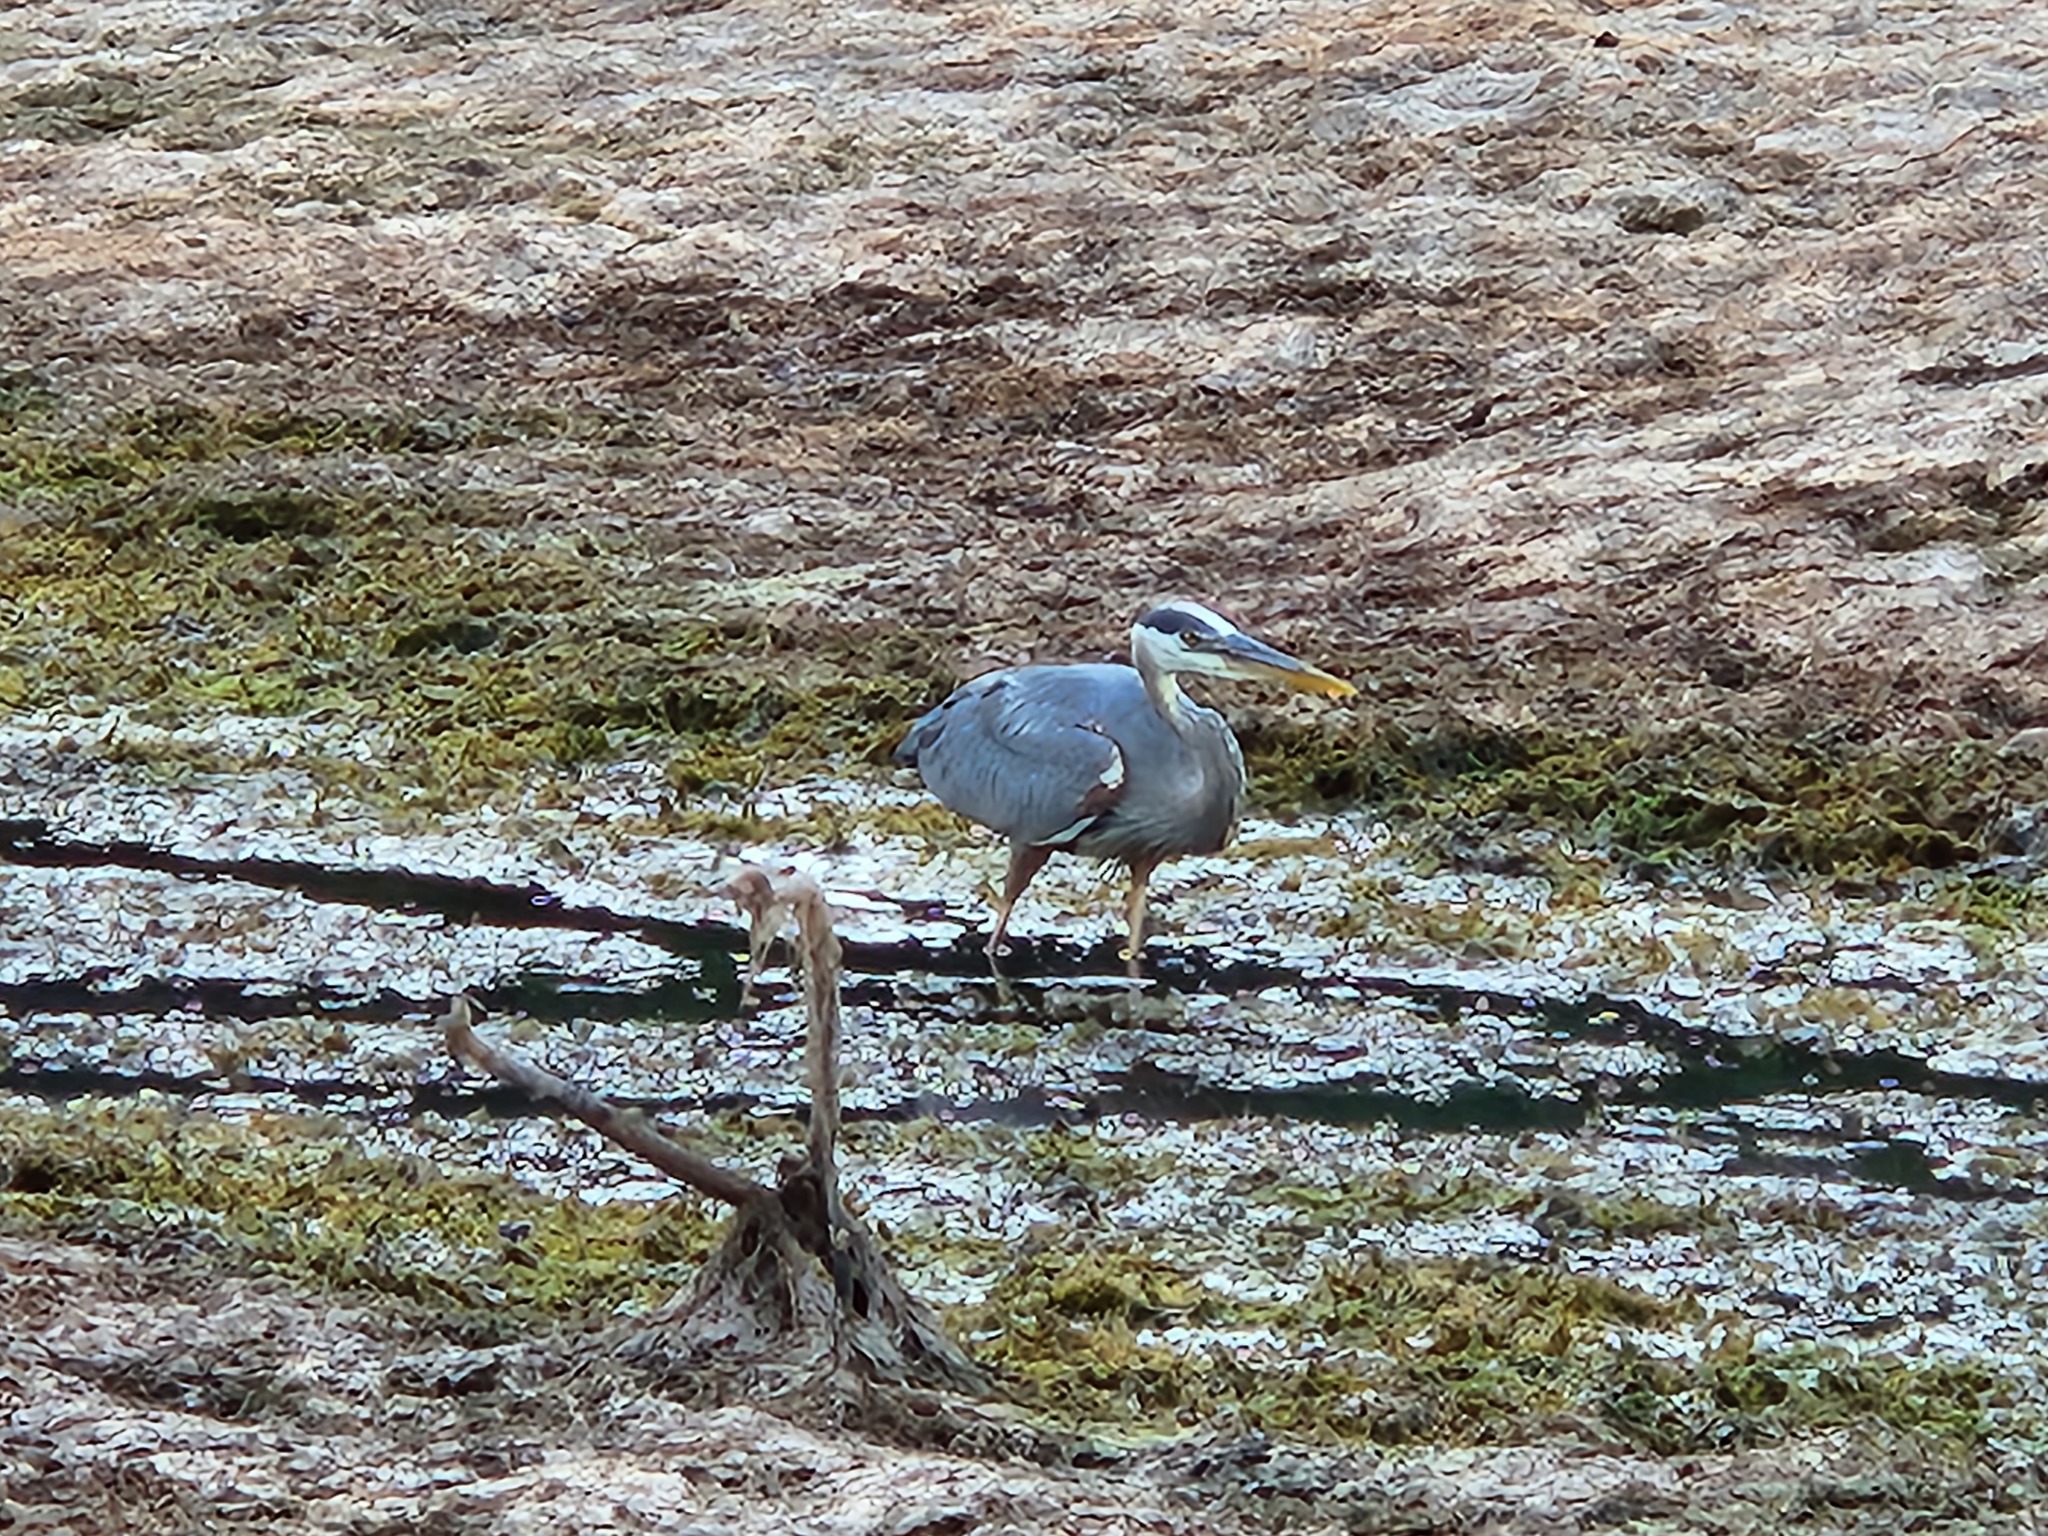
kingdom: Animalia
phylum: Chordata
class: Aves
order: Pelecaniformes
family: Ardeidae
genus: Ardea
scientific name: Ardea herodias
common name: Great blue heron
